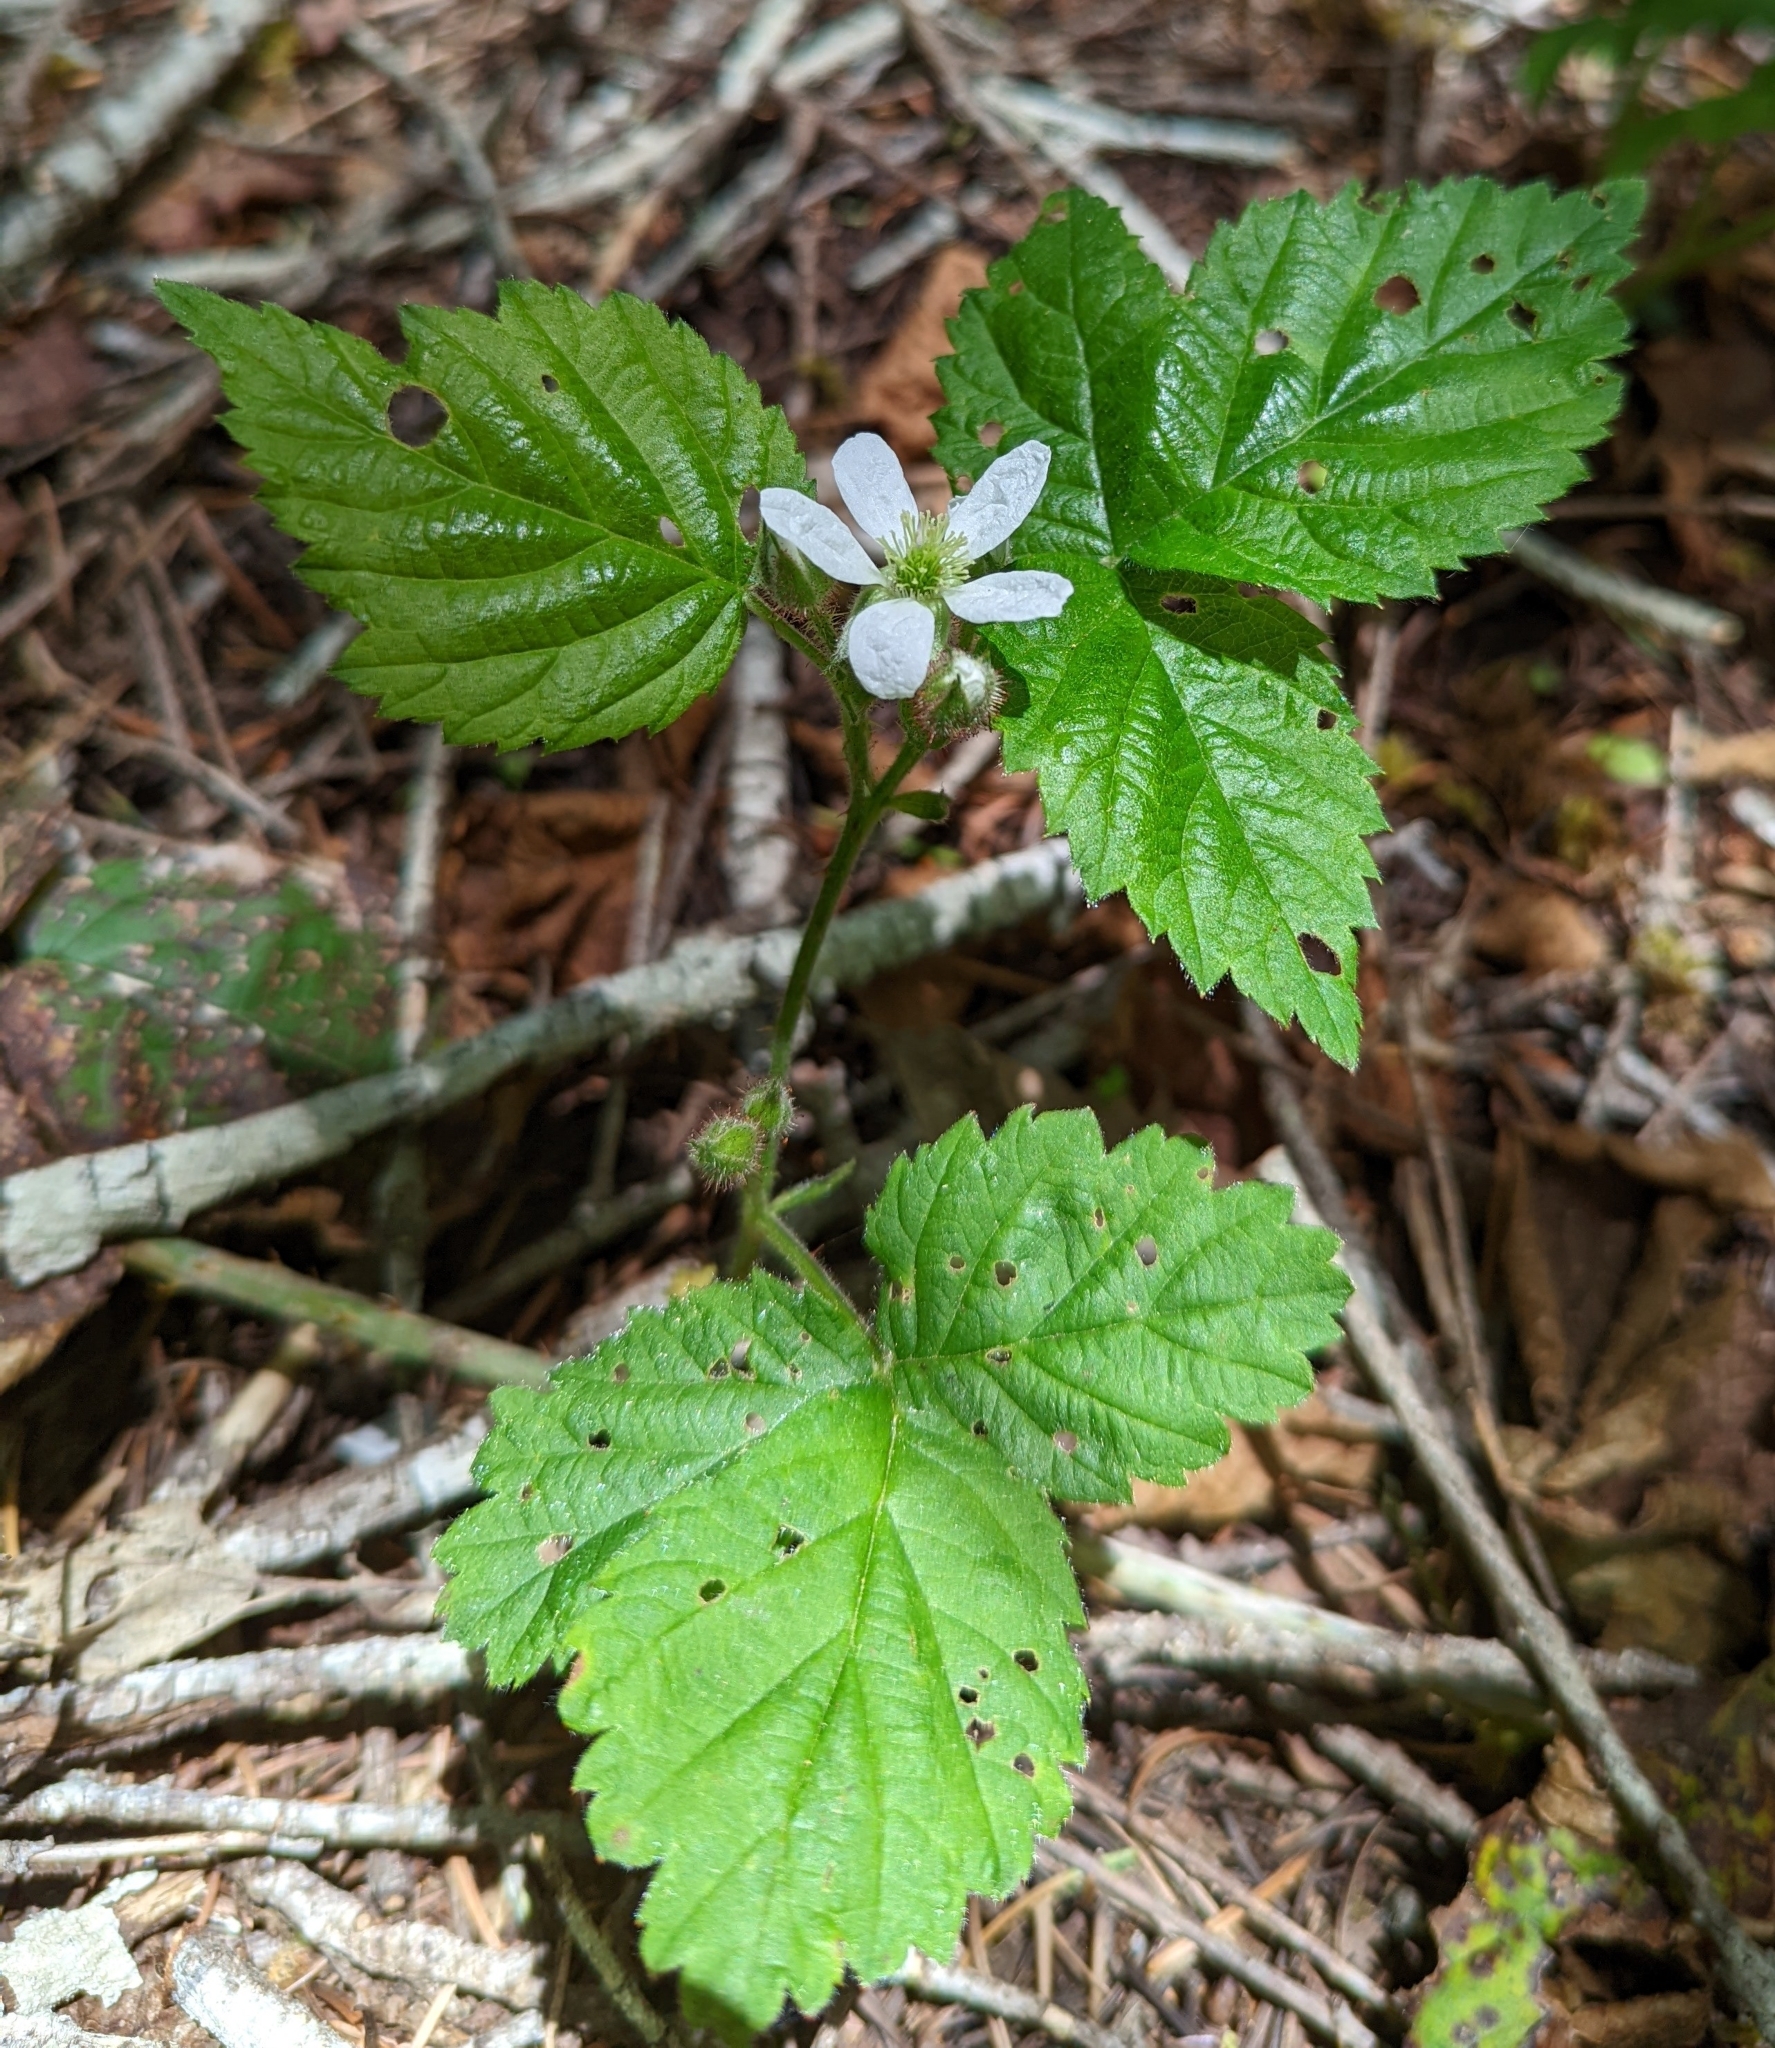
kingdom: Plantae
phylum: Tracheophyta
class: Magnoliopsida
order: Rosales
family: Rosaceae
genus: Rubus
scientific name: Rubus ursinus
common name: Pacific blackberry
